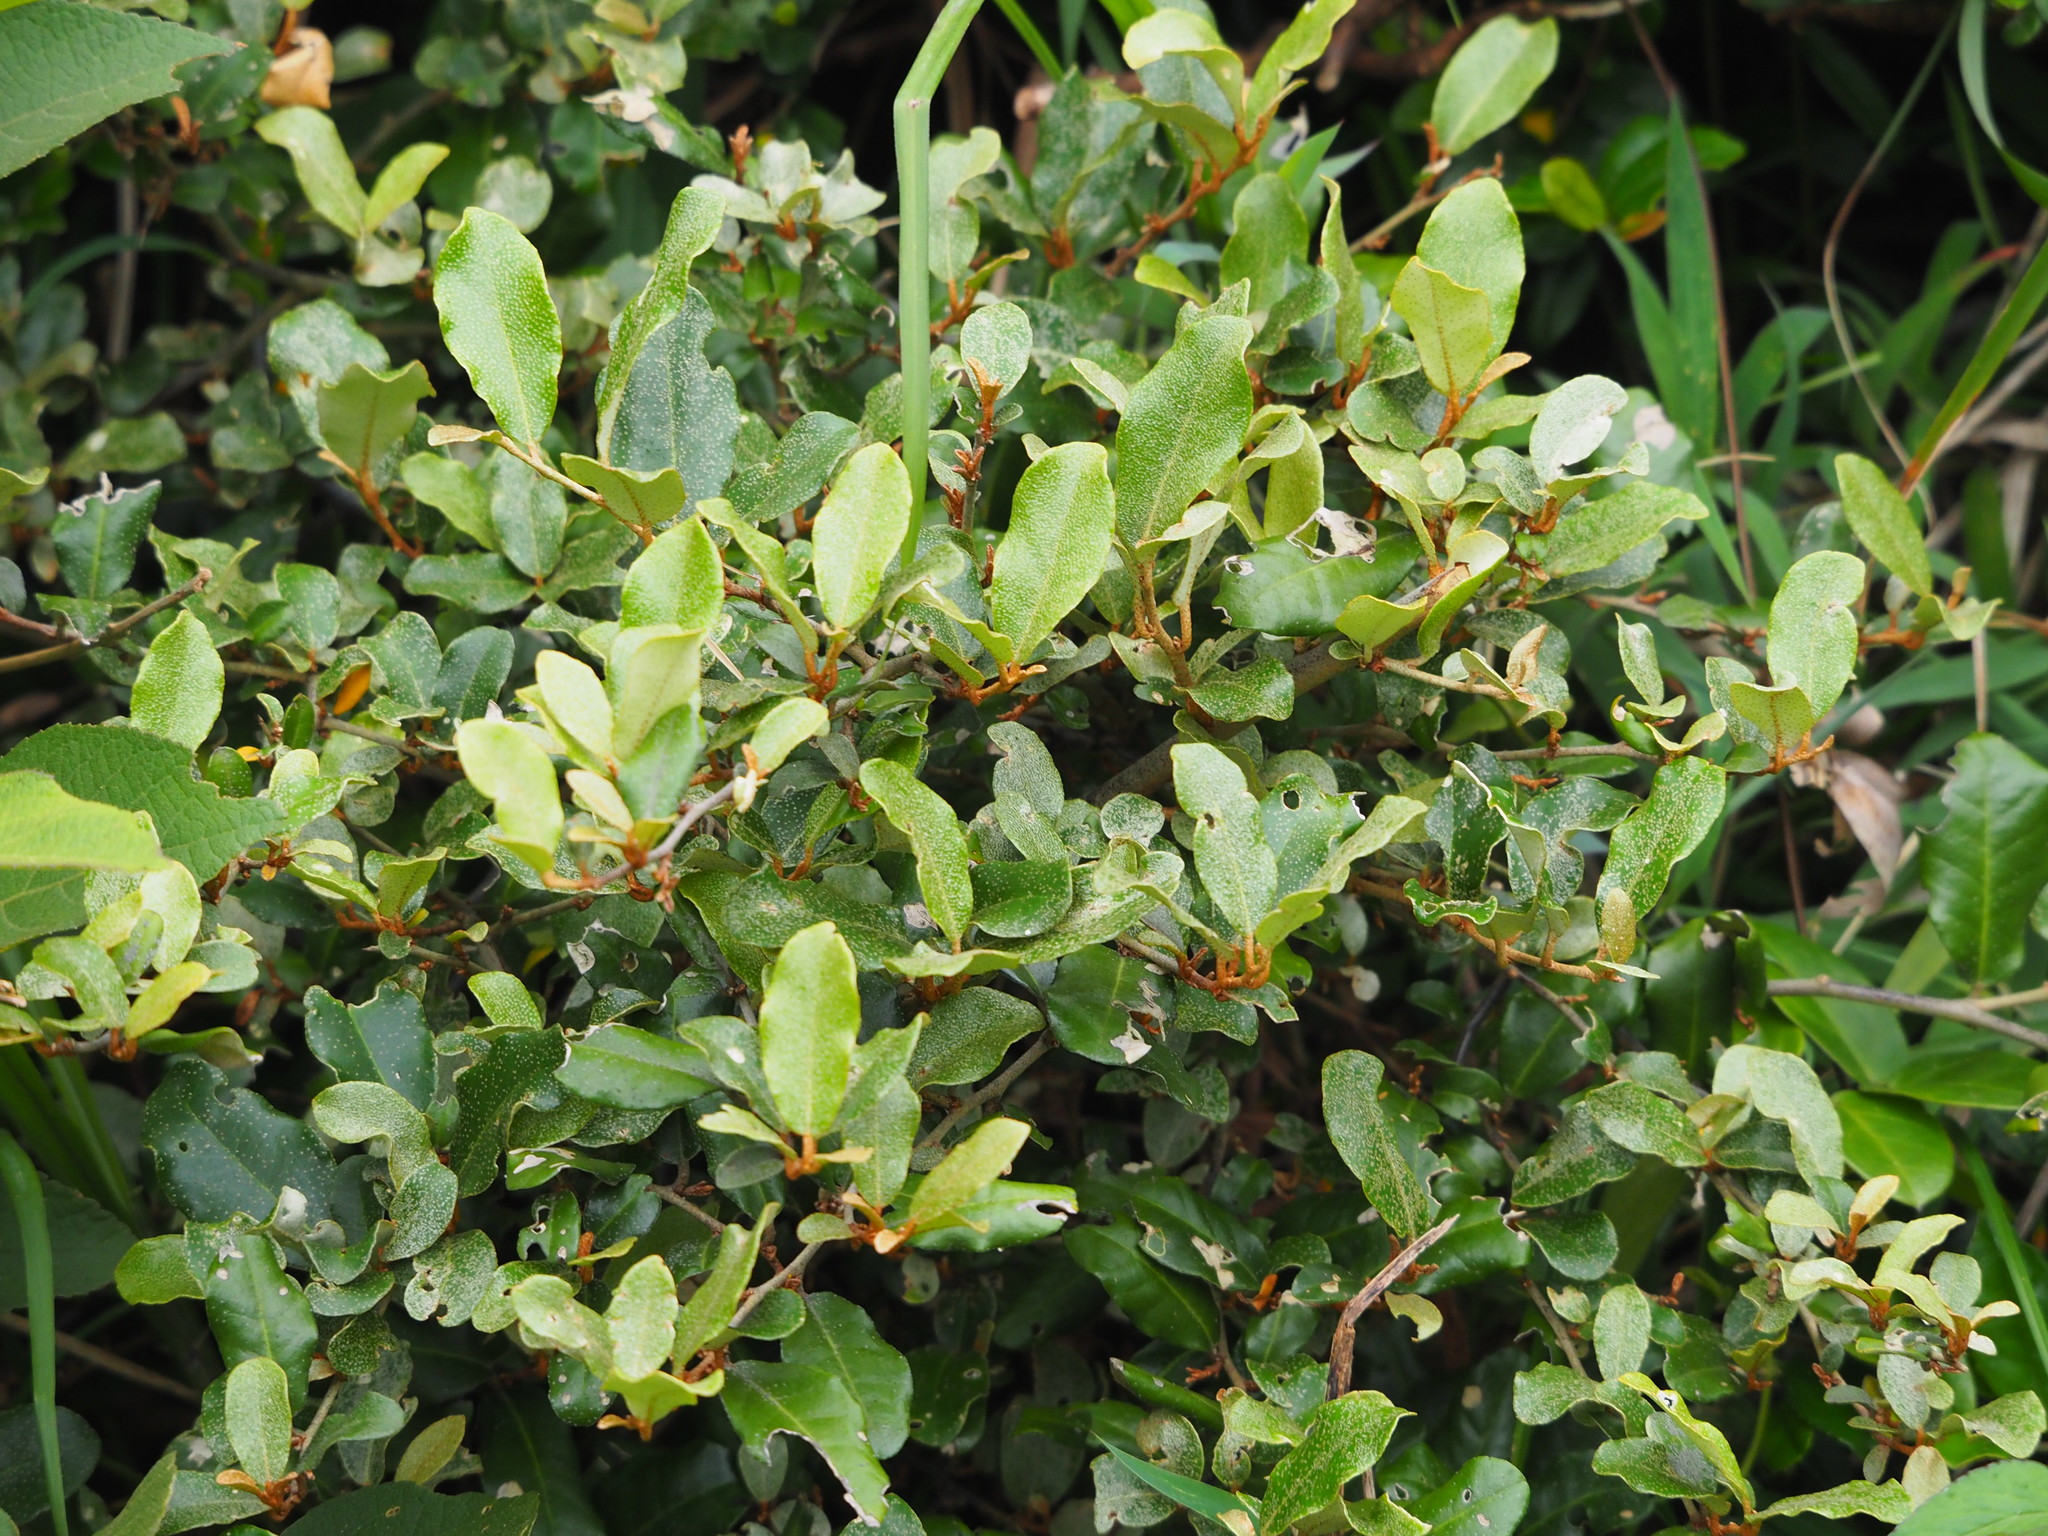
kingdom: Plantae
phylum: Tracheophyta
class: Magnoliopsida
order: Rosales
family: Elaeagnaceae
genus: Elaeagnus
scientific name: Elaeagnus oldhamii
